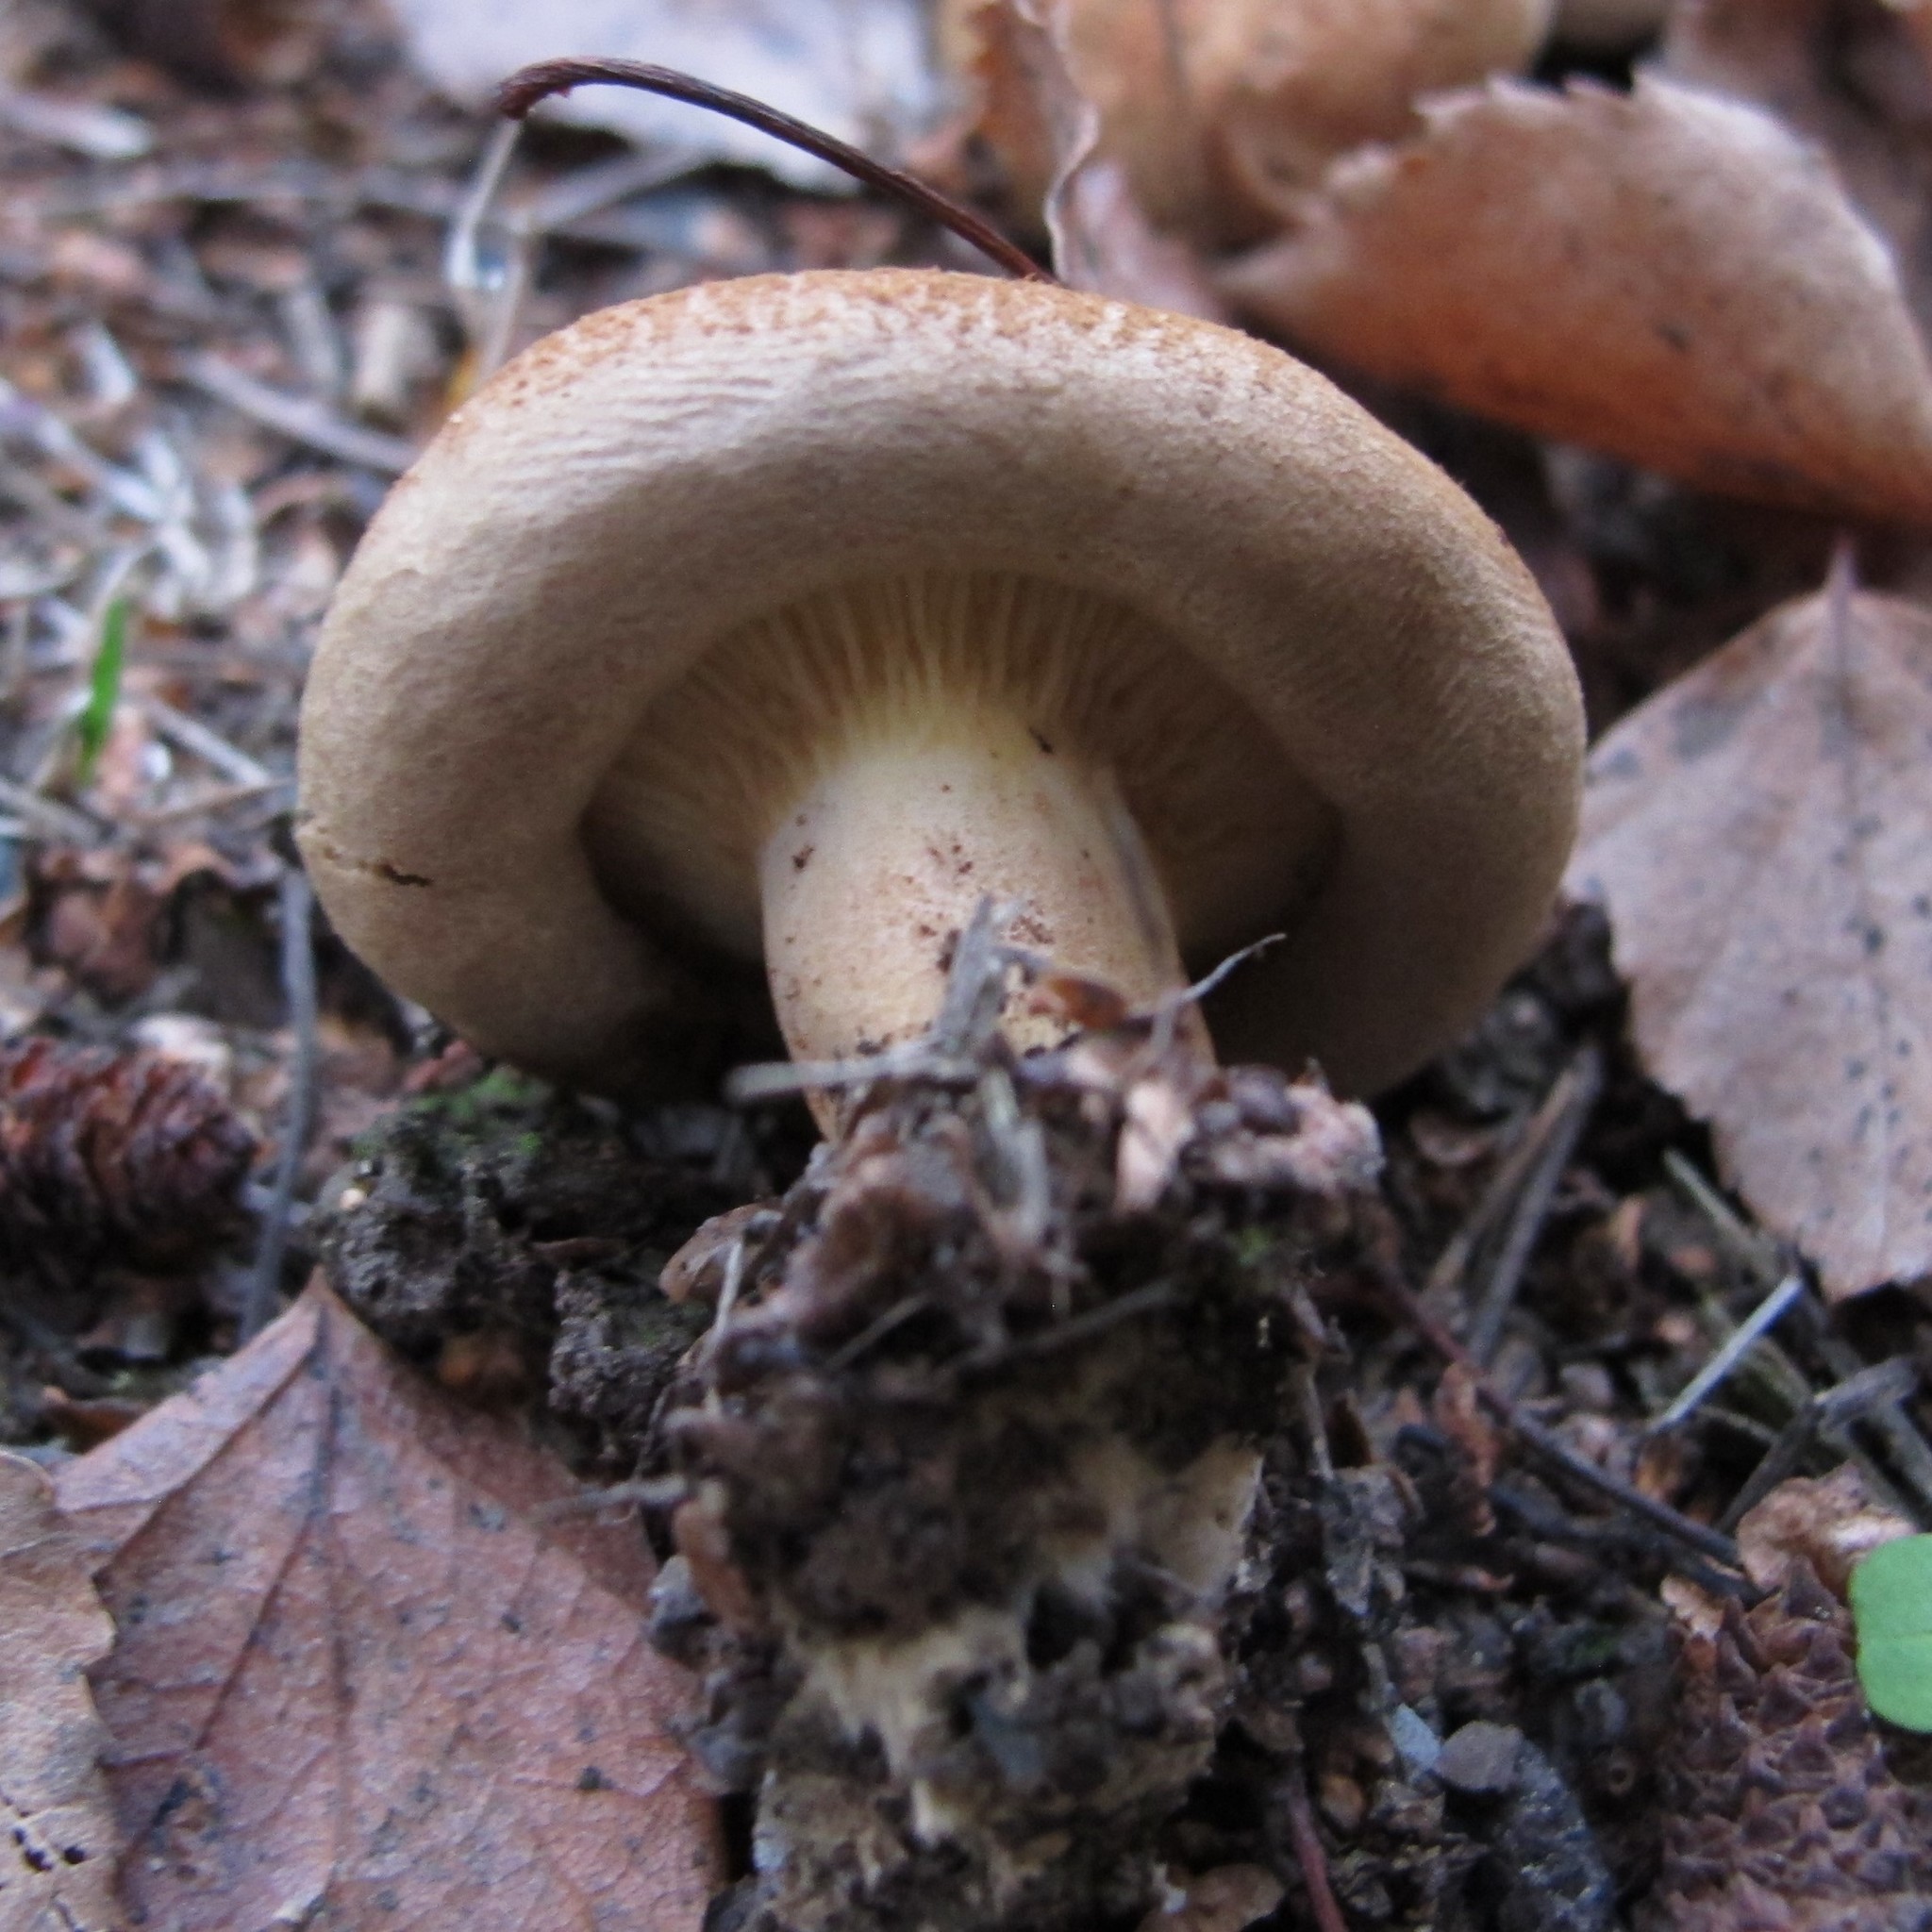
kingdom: Fungi
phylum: Basidiomycota
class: Agaricomycetes
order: Boletales
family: Paxillaceae
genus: Paxillus
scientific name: Paxillus involutus
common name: Brown roll rim
